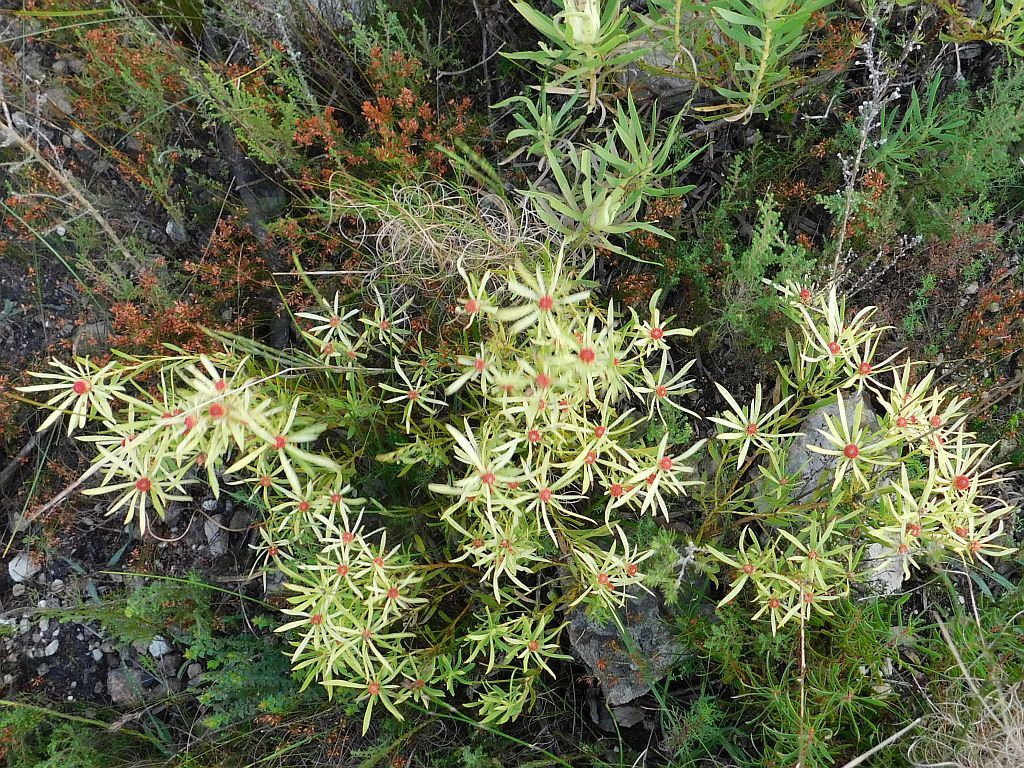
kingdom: Plantae
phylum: Tracheophyta
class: Magnoliopsida
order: Proteales
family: Proteaceae
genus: Leucadendron
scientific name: Leucadendron salignum
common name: Common sunshine conebush
